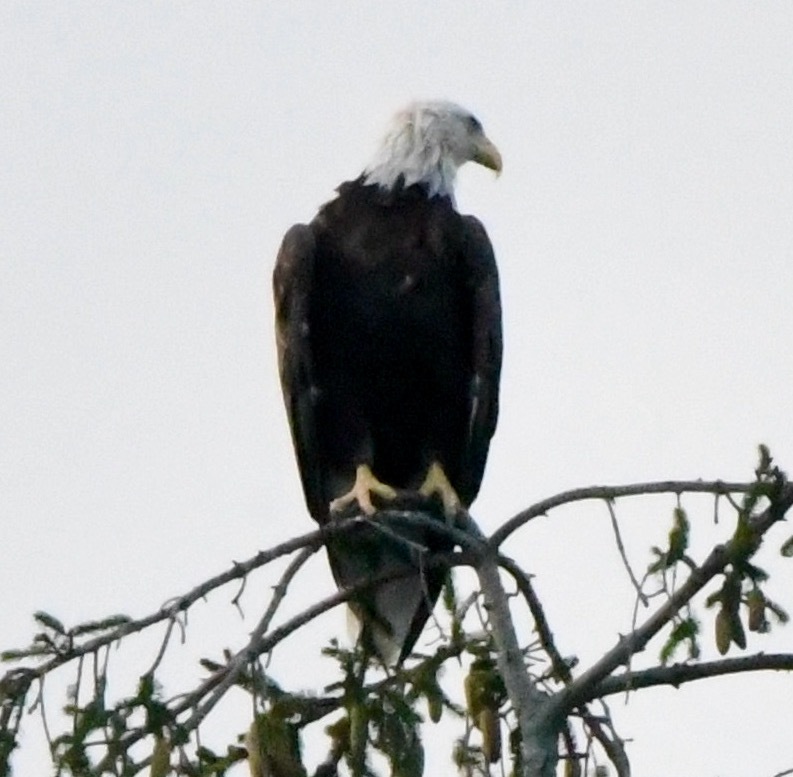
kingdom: Animalia
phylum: Chordata
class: Aves
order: Accipitriformes
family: Accipitridae
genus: Haliaeetus
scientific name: Haliaeetus leucocephalus
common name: Bald eagle
